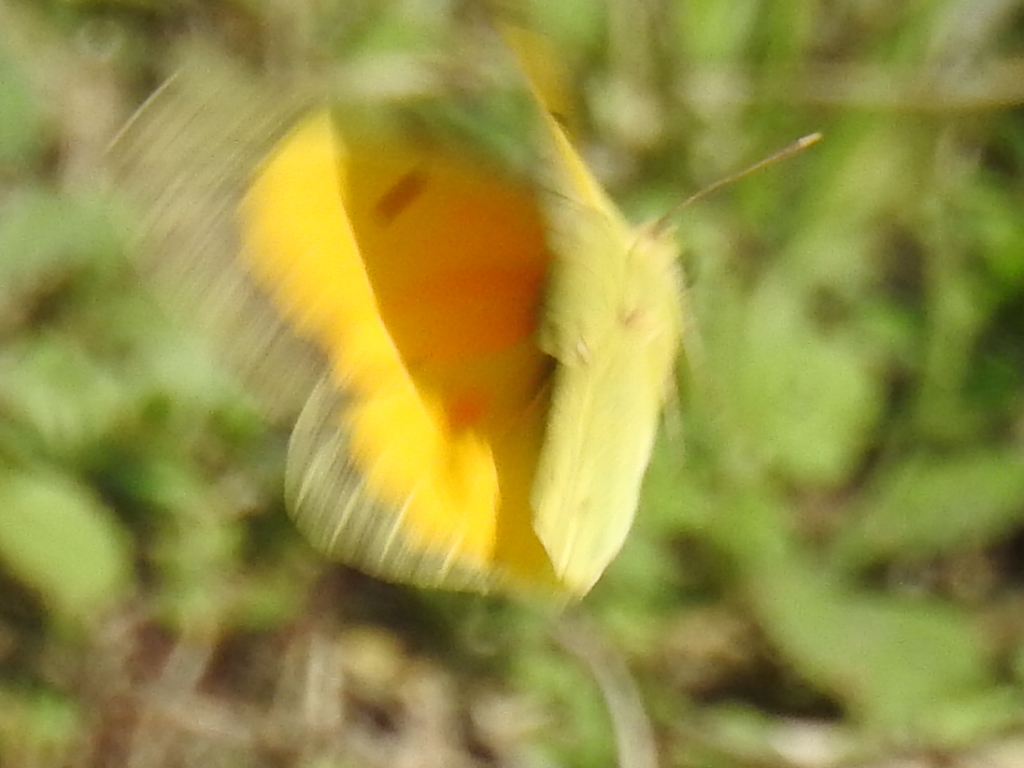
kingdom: Animalia
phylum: Arthropoda
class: Insecta
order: Lepidoptera
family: Pieridae
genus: Colias
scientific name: Colias eurytheme
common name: Alfalfa butterfly
